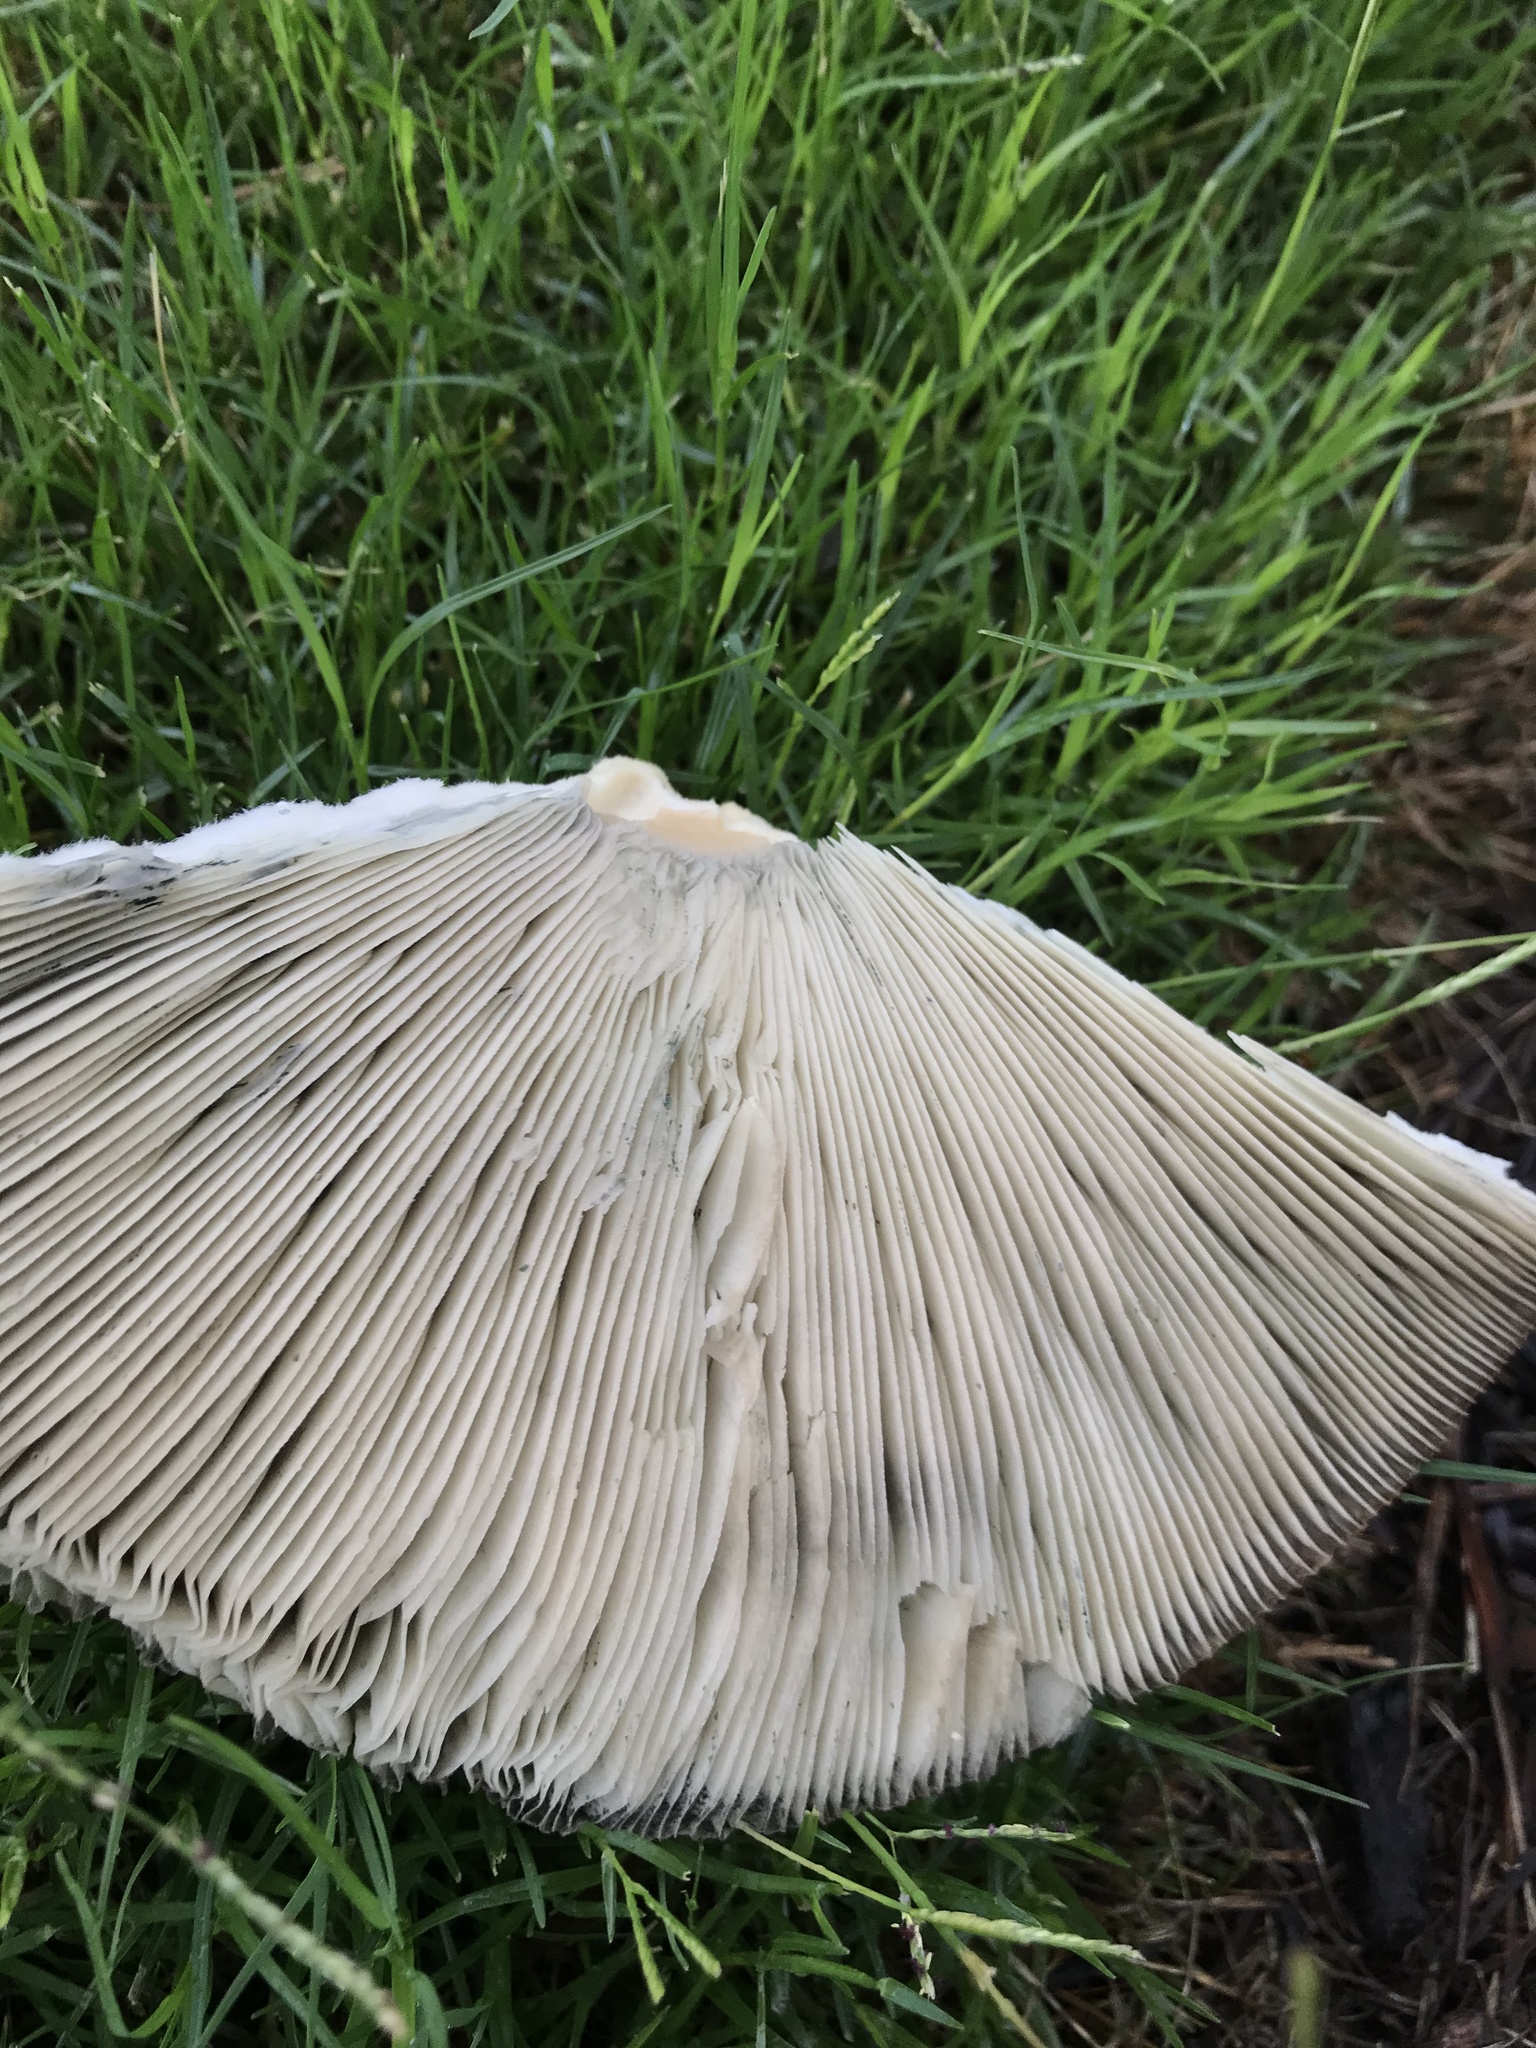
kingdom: Fungi
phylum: Basidiomycota
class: Agaricomycetes
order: Agaricales
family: Agaricaceae
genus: Chlorophyllum
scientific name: Chlorophyllum molybdites
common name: False parasol
